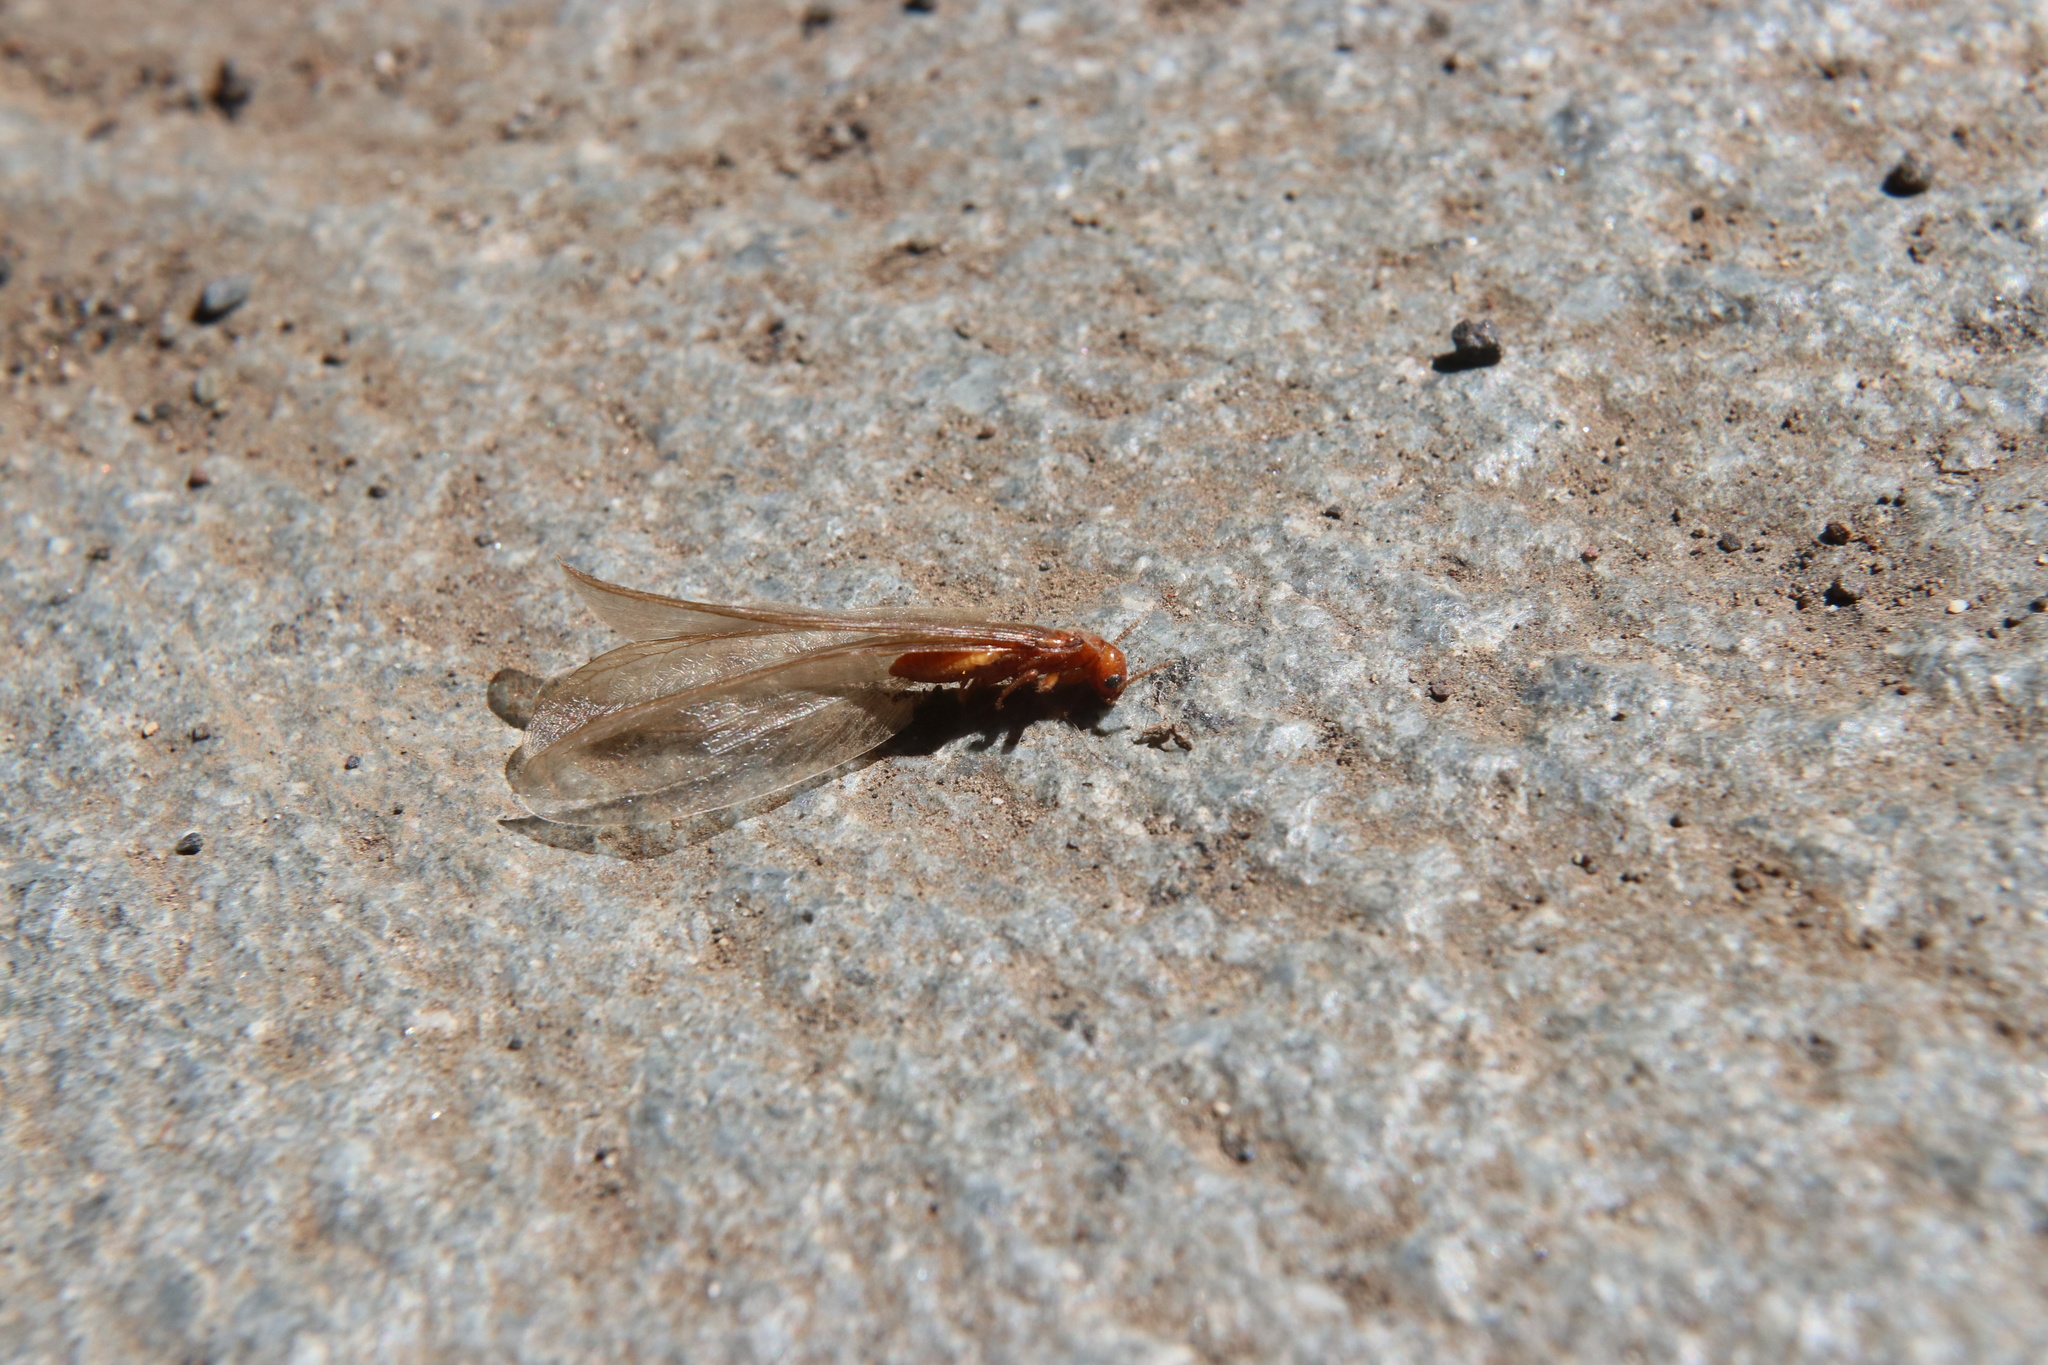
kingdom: Animalia
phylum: Arthropoda
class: Insecta
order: Blattodea
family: Stolotermitidae
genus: Porotermes
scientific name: Porotermes quadricollis
